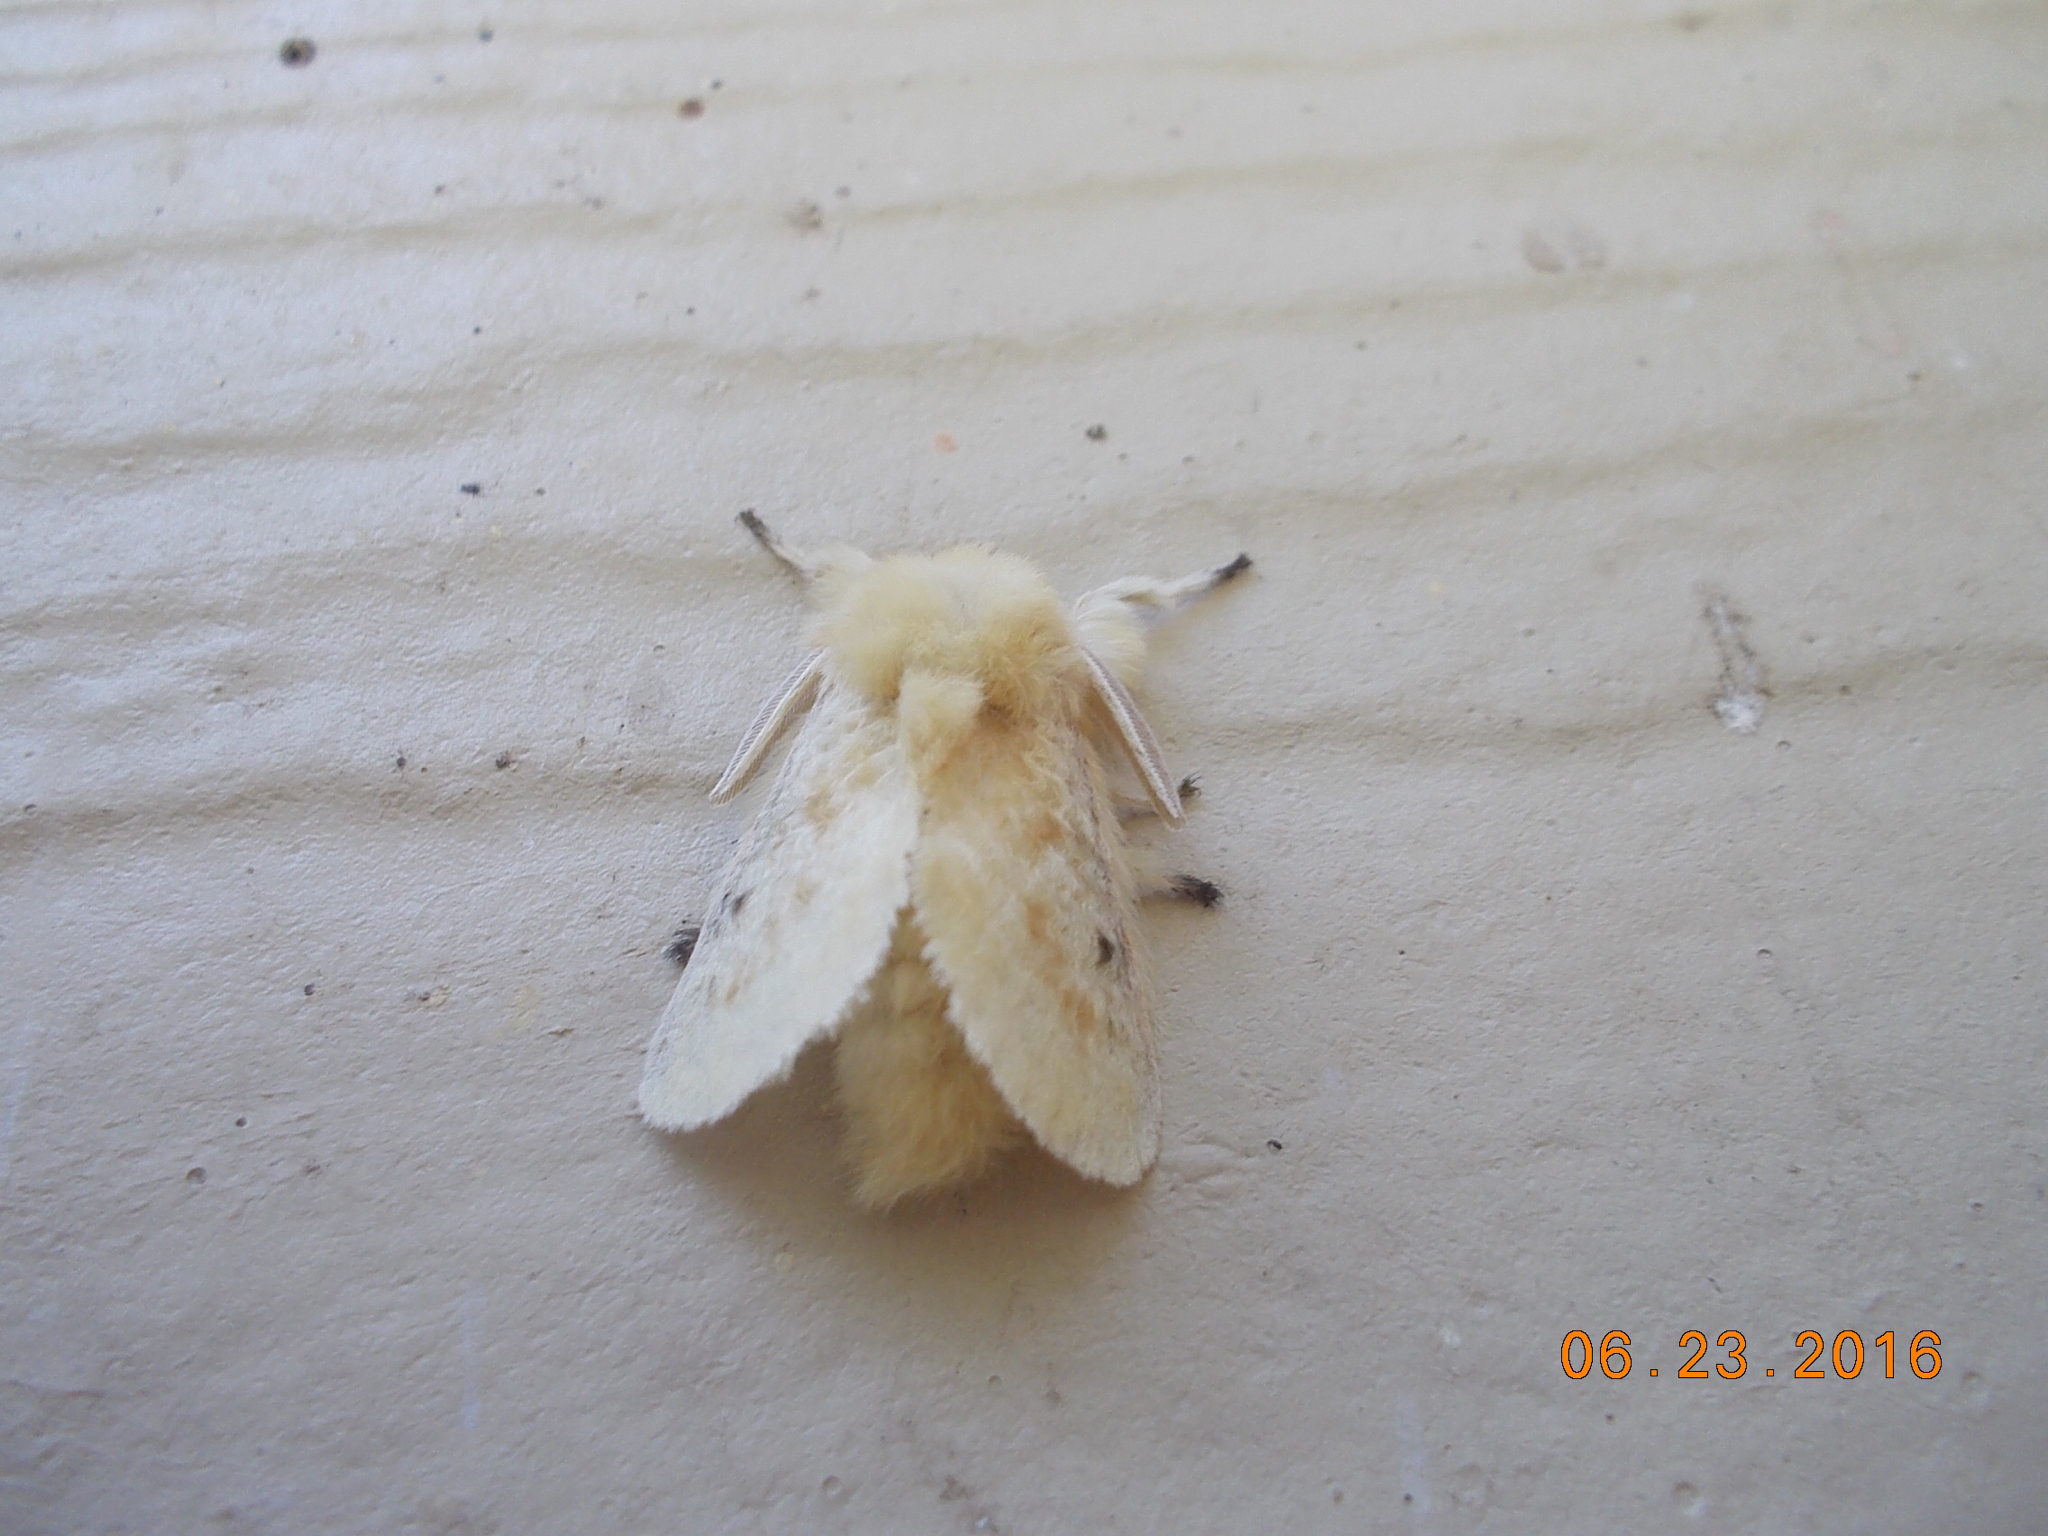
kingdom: Animalia
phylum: Arthropoda
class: Insecta
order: Lepidoptera
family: Megalopygidae
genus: Megalopyge
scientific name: Megalopyge crispata
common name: Black-waved flannel moth
